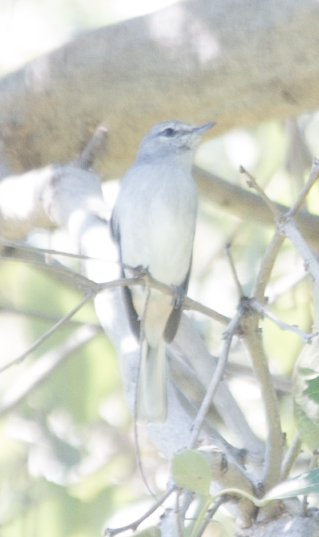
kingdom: Animalia
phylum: Chordata
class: Aves
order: Passeriformes
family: Muscicapidae
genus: Myioparus
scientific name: Myioparus plumbeus
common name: Grey tit-flycatcher
